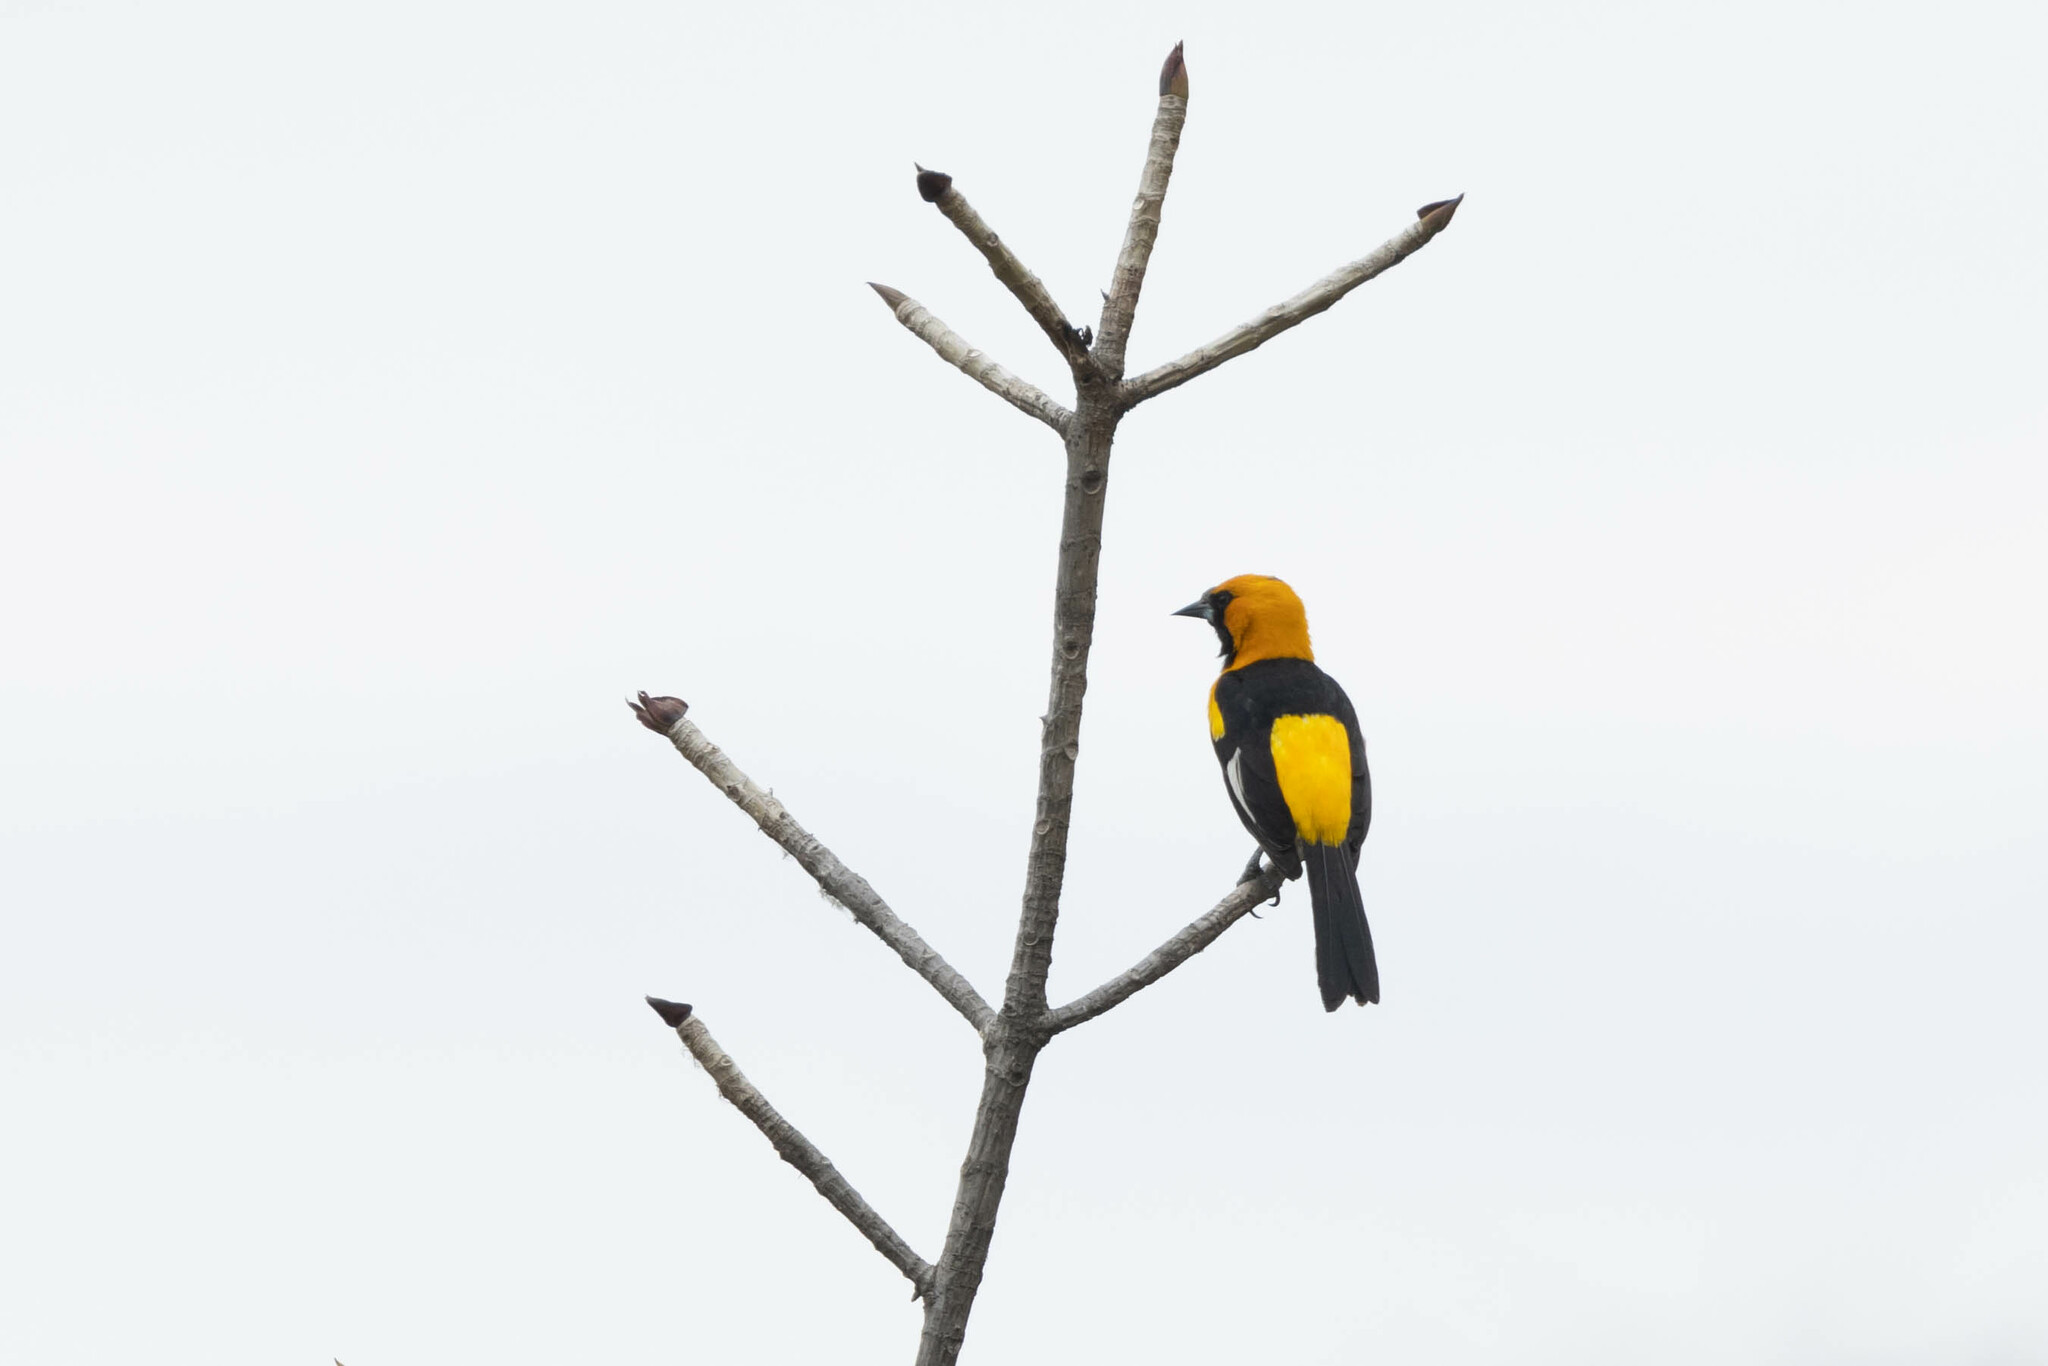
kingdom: Animalia
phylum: Chordata
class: Aves
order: Passeriformes
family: Icteridae
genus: Icterus
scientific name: Icterus graceannae
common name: White-edged oriole
